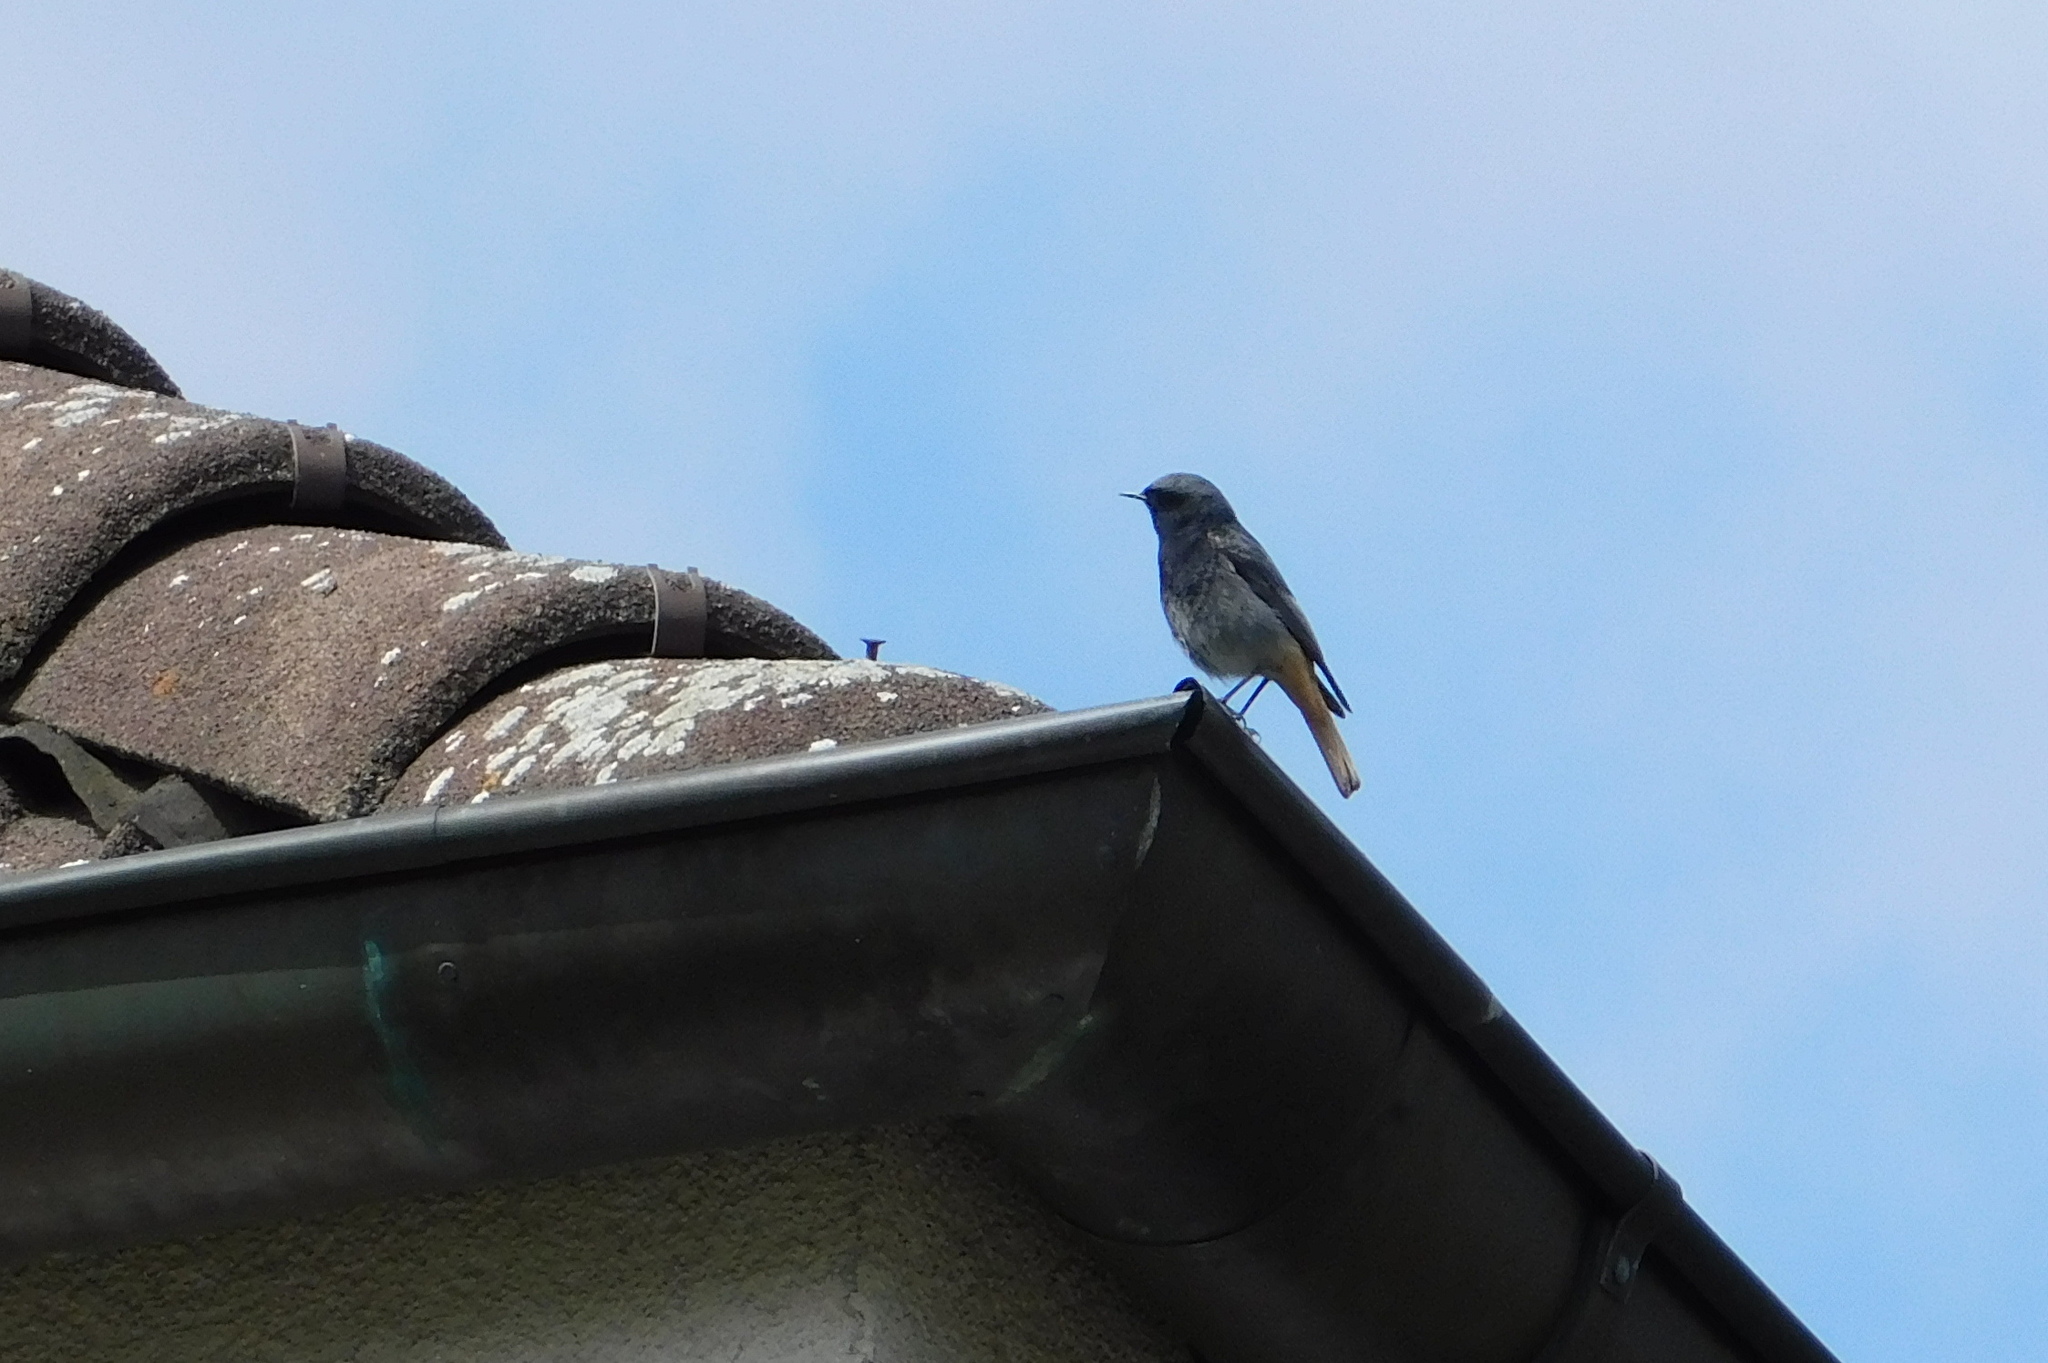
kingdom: Animalia
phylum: Chordata
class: Aves
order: Passeriformes
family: Muscicapidae
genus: Phoenicurus
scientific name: Phoenicurus ochruros
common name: Black redstart
